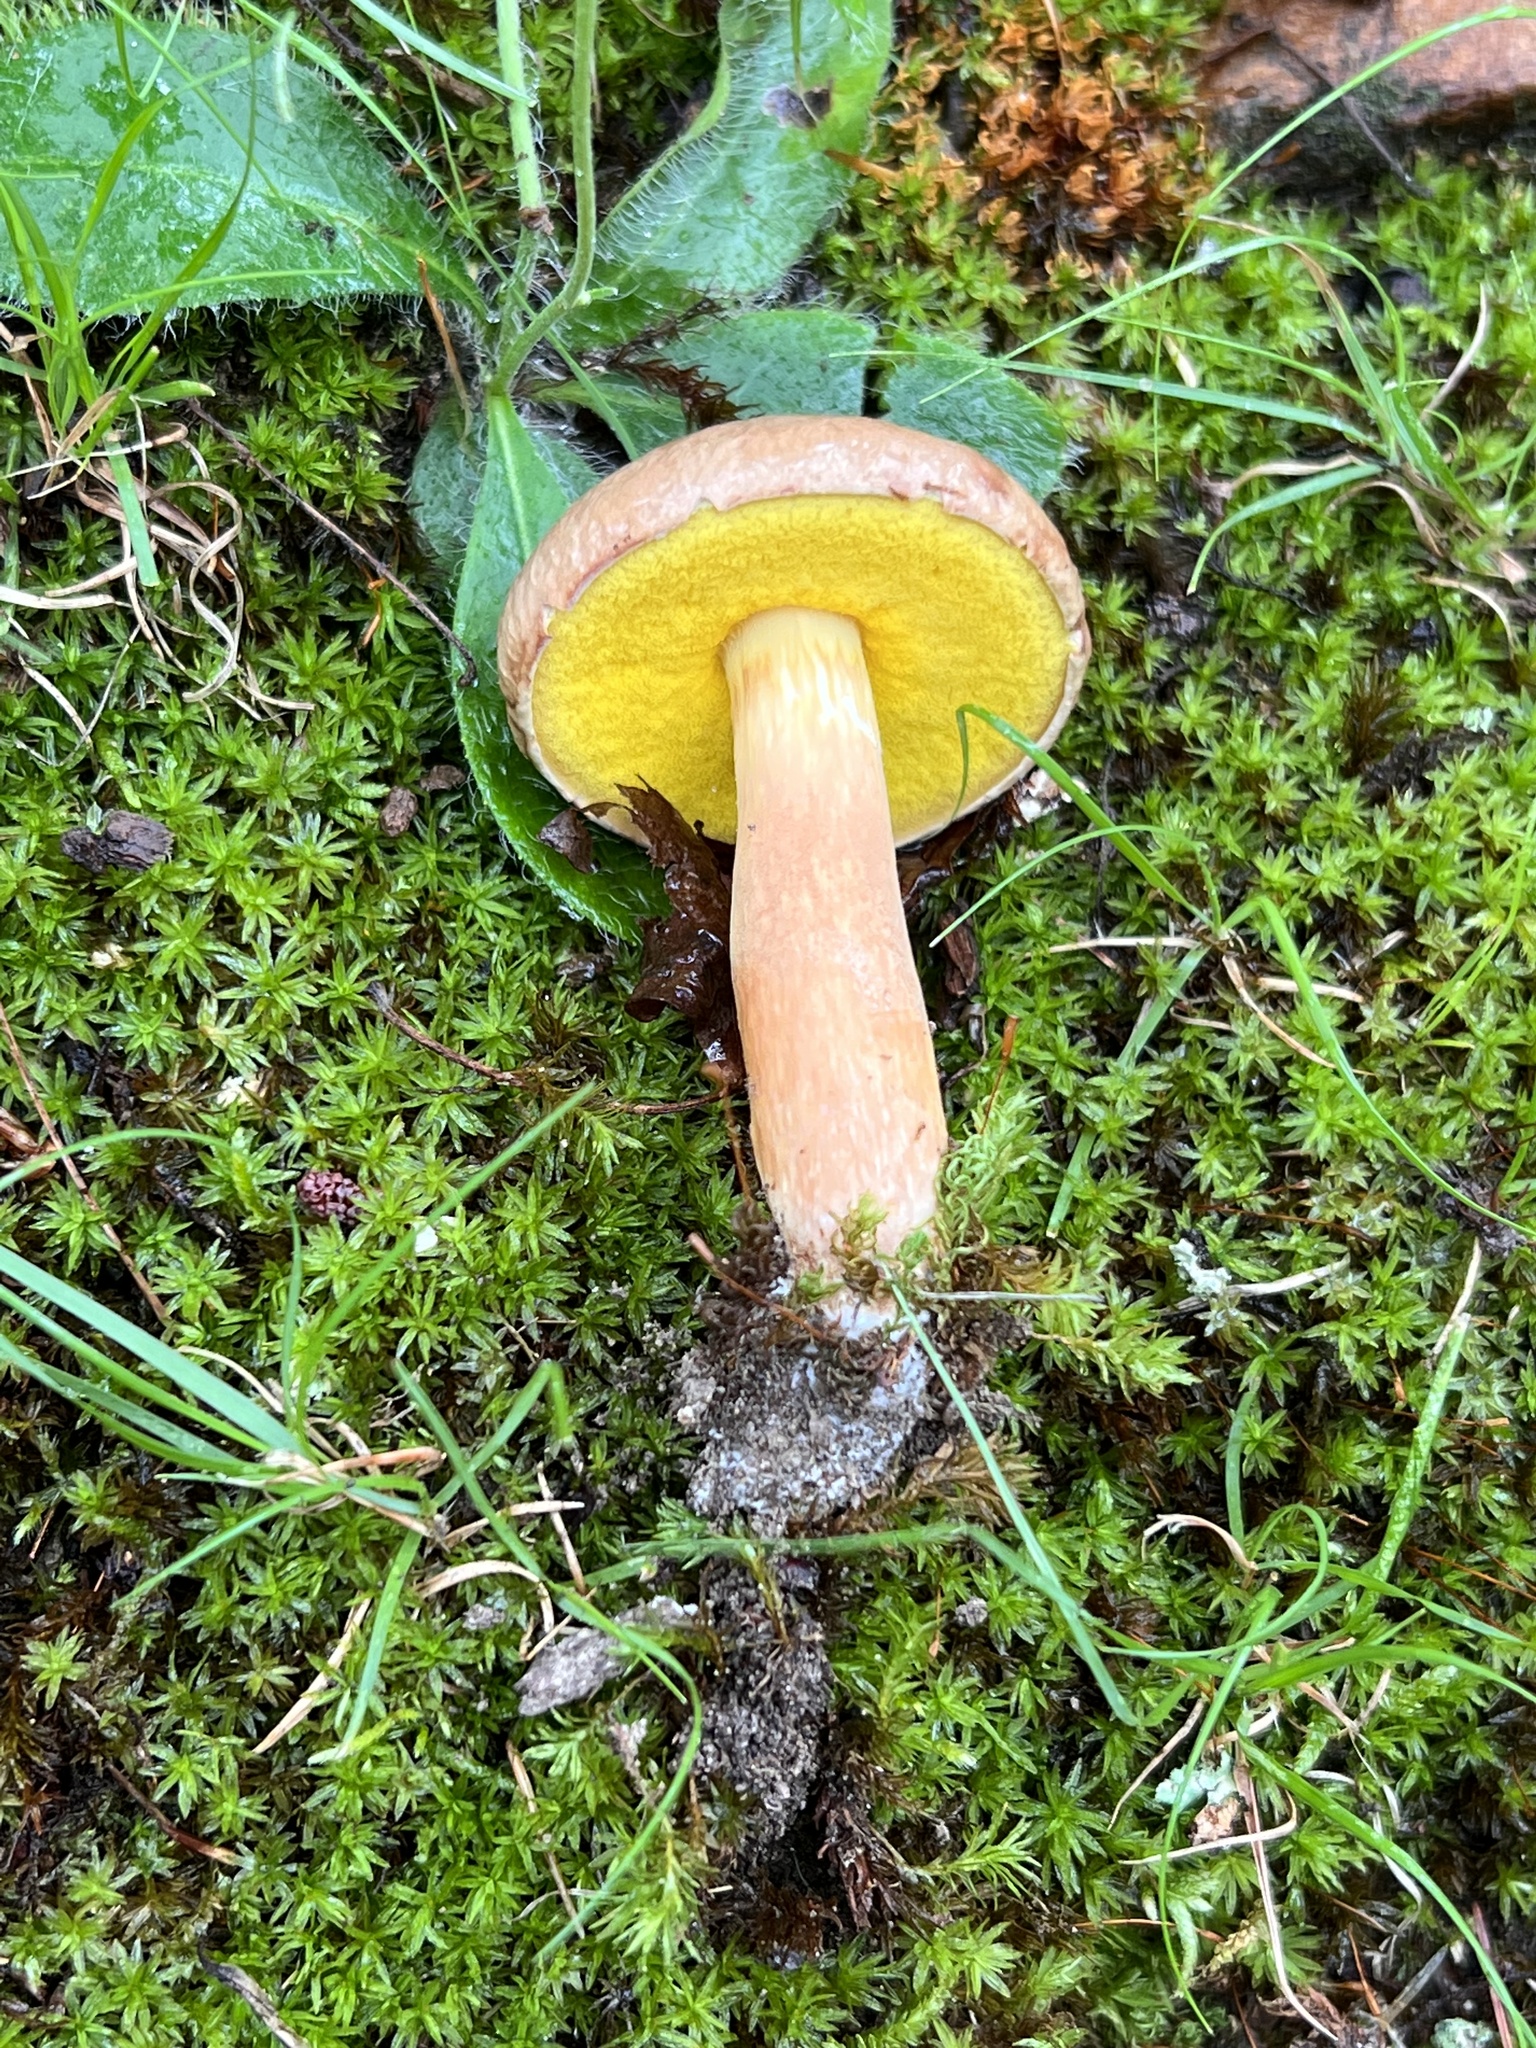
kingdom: Fungi
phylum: Basidiomycota
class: Agaricomycetes
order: Boletales
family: Boletaceae
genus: Aureoboletus
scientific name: Aureoboletus auriporus
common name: Sour gold-pored bolete
